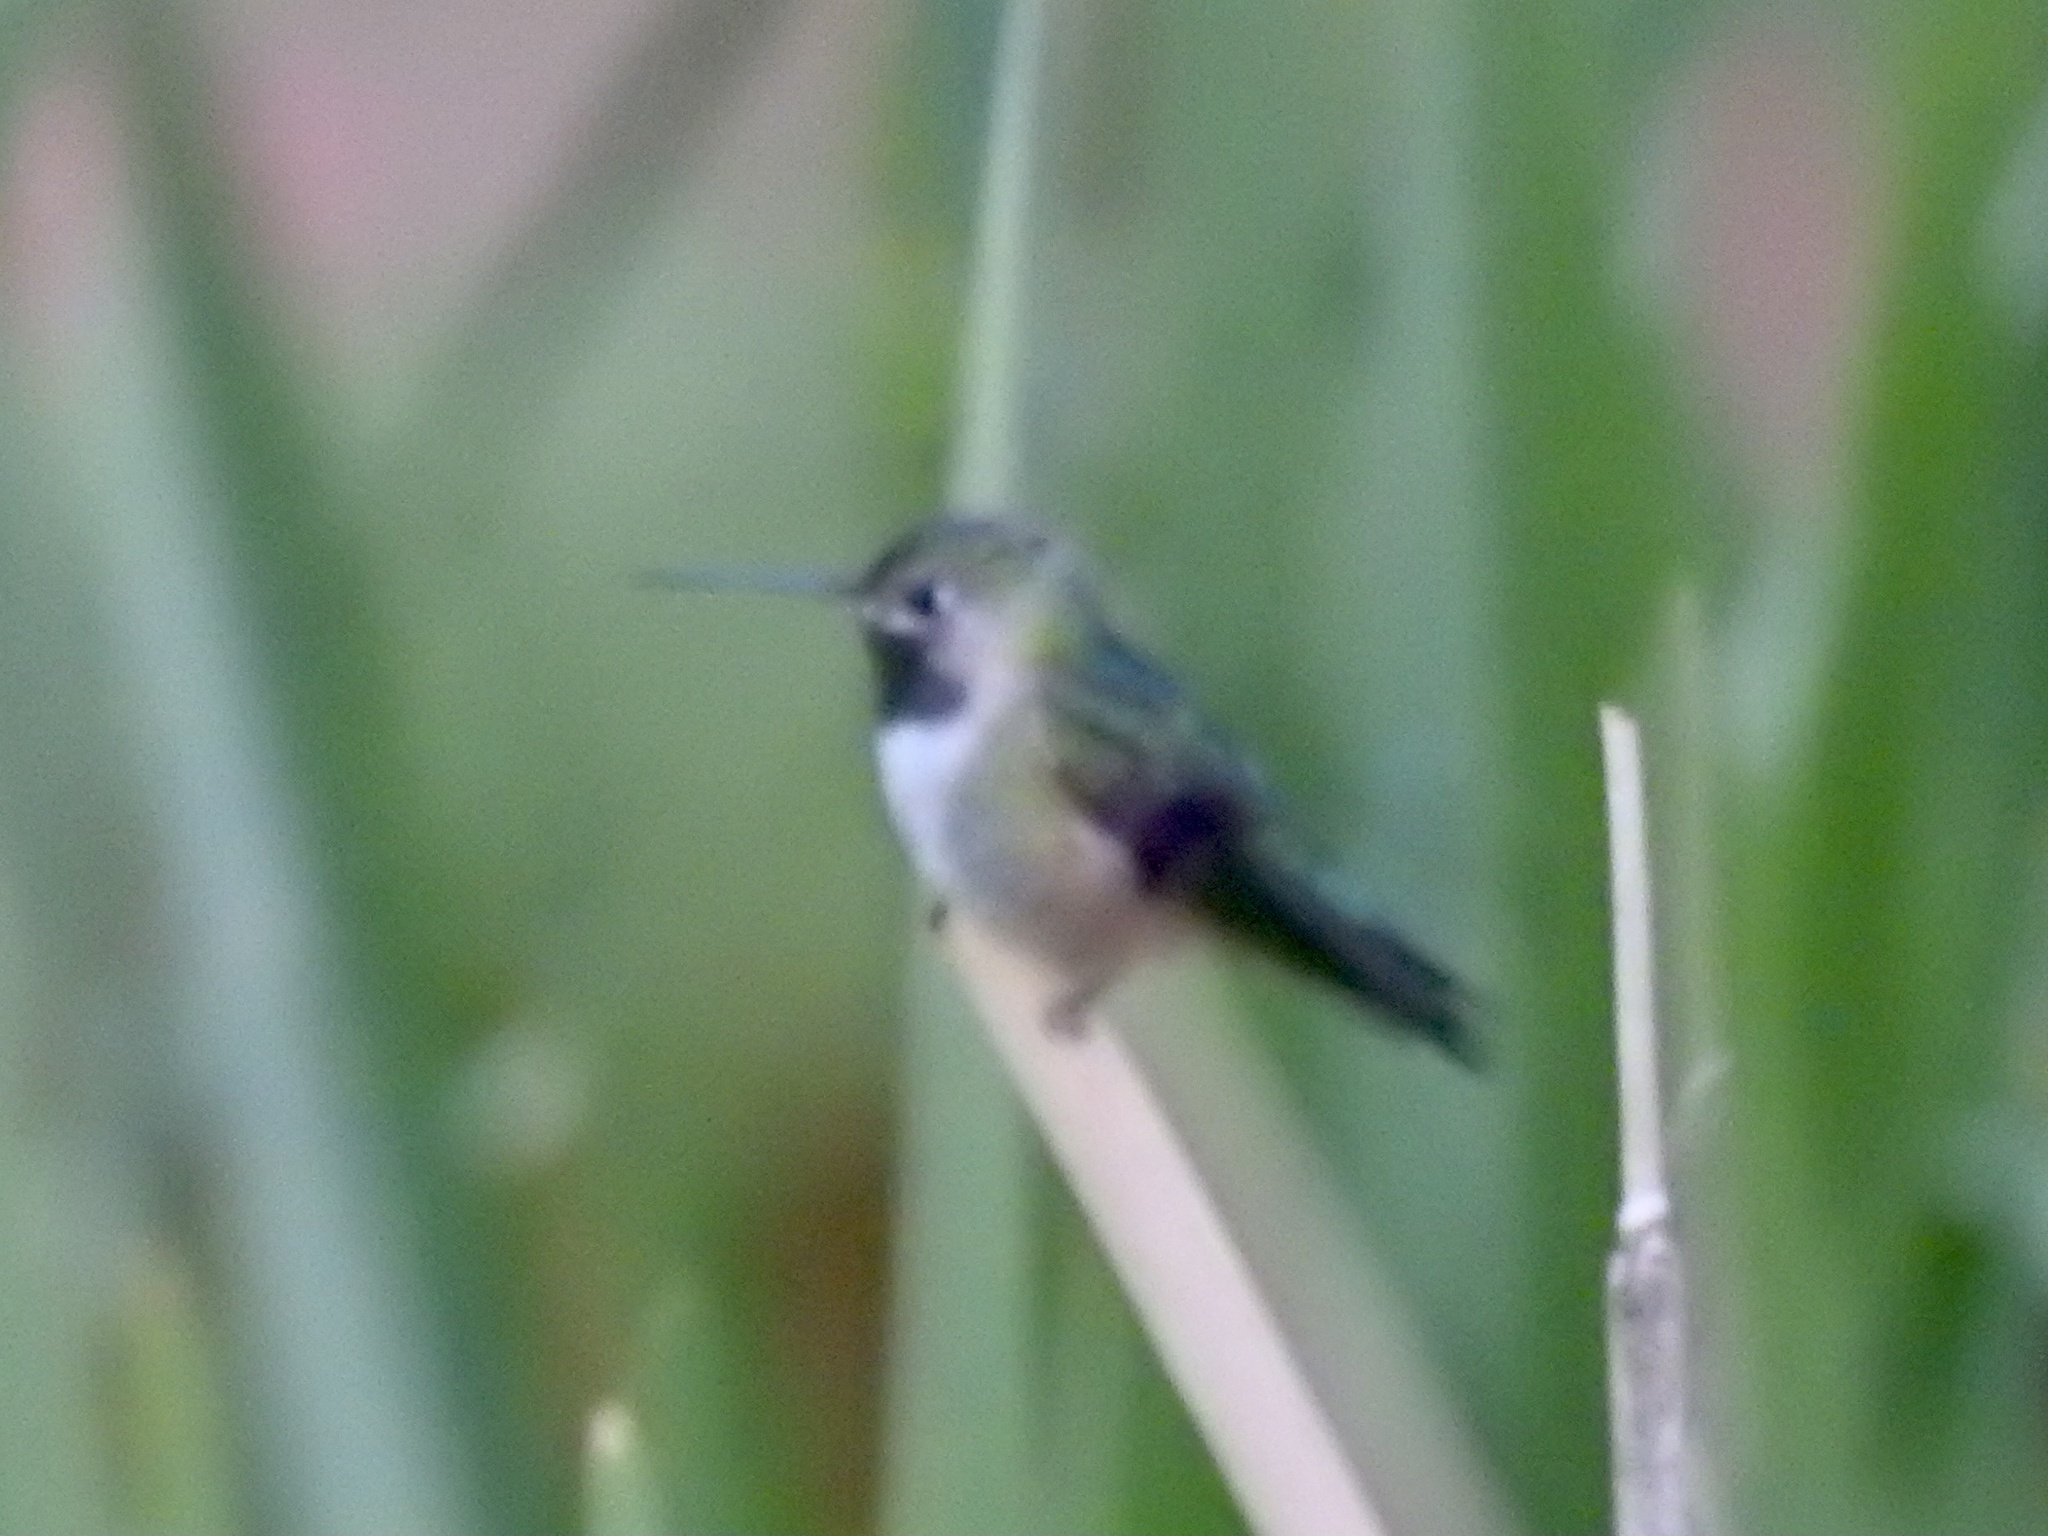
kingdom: Animalia
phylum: Chordata
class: Aves
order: Apodiformes
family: Trochilidae
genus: Selasphorus
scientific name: Selasphorus platycercus
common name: Broad-tailed hummingbird
